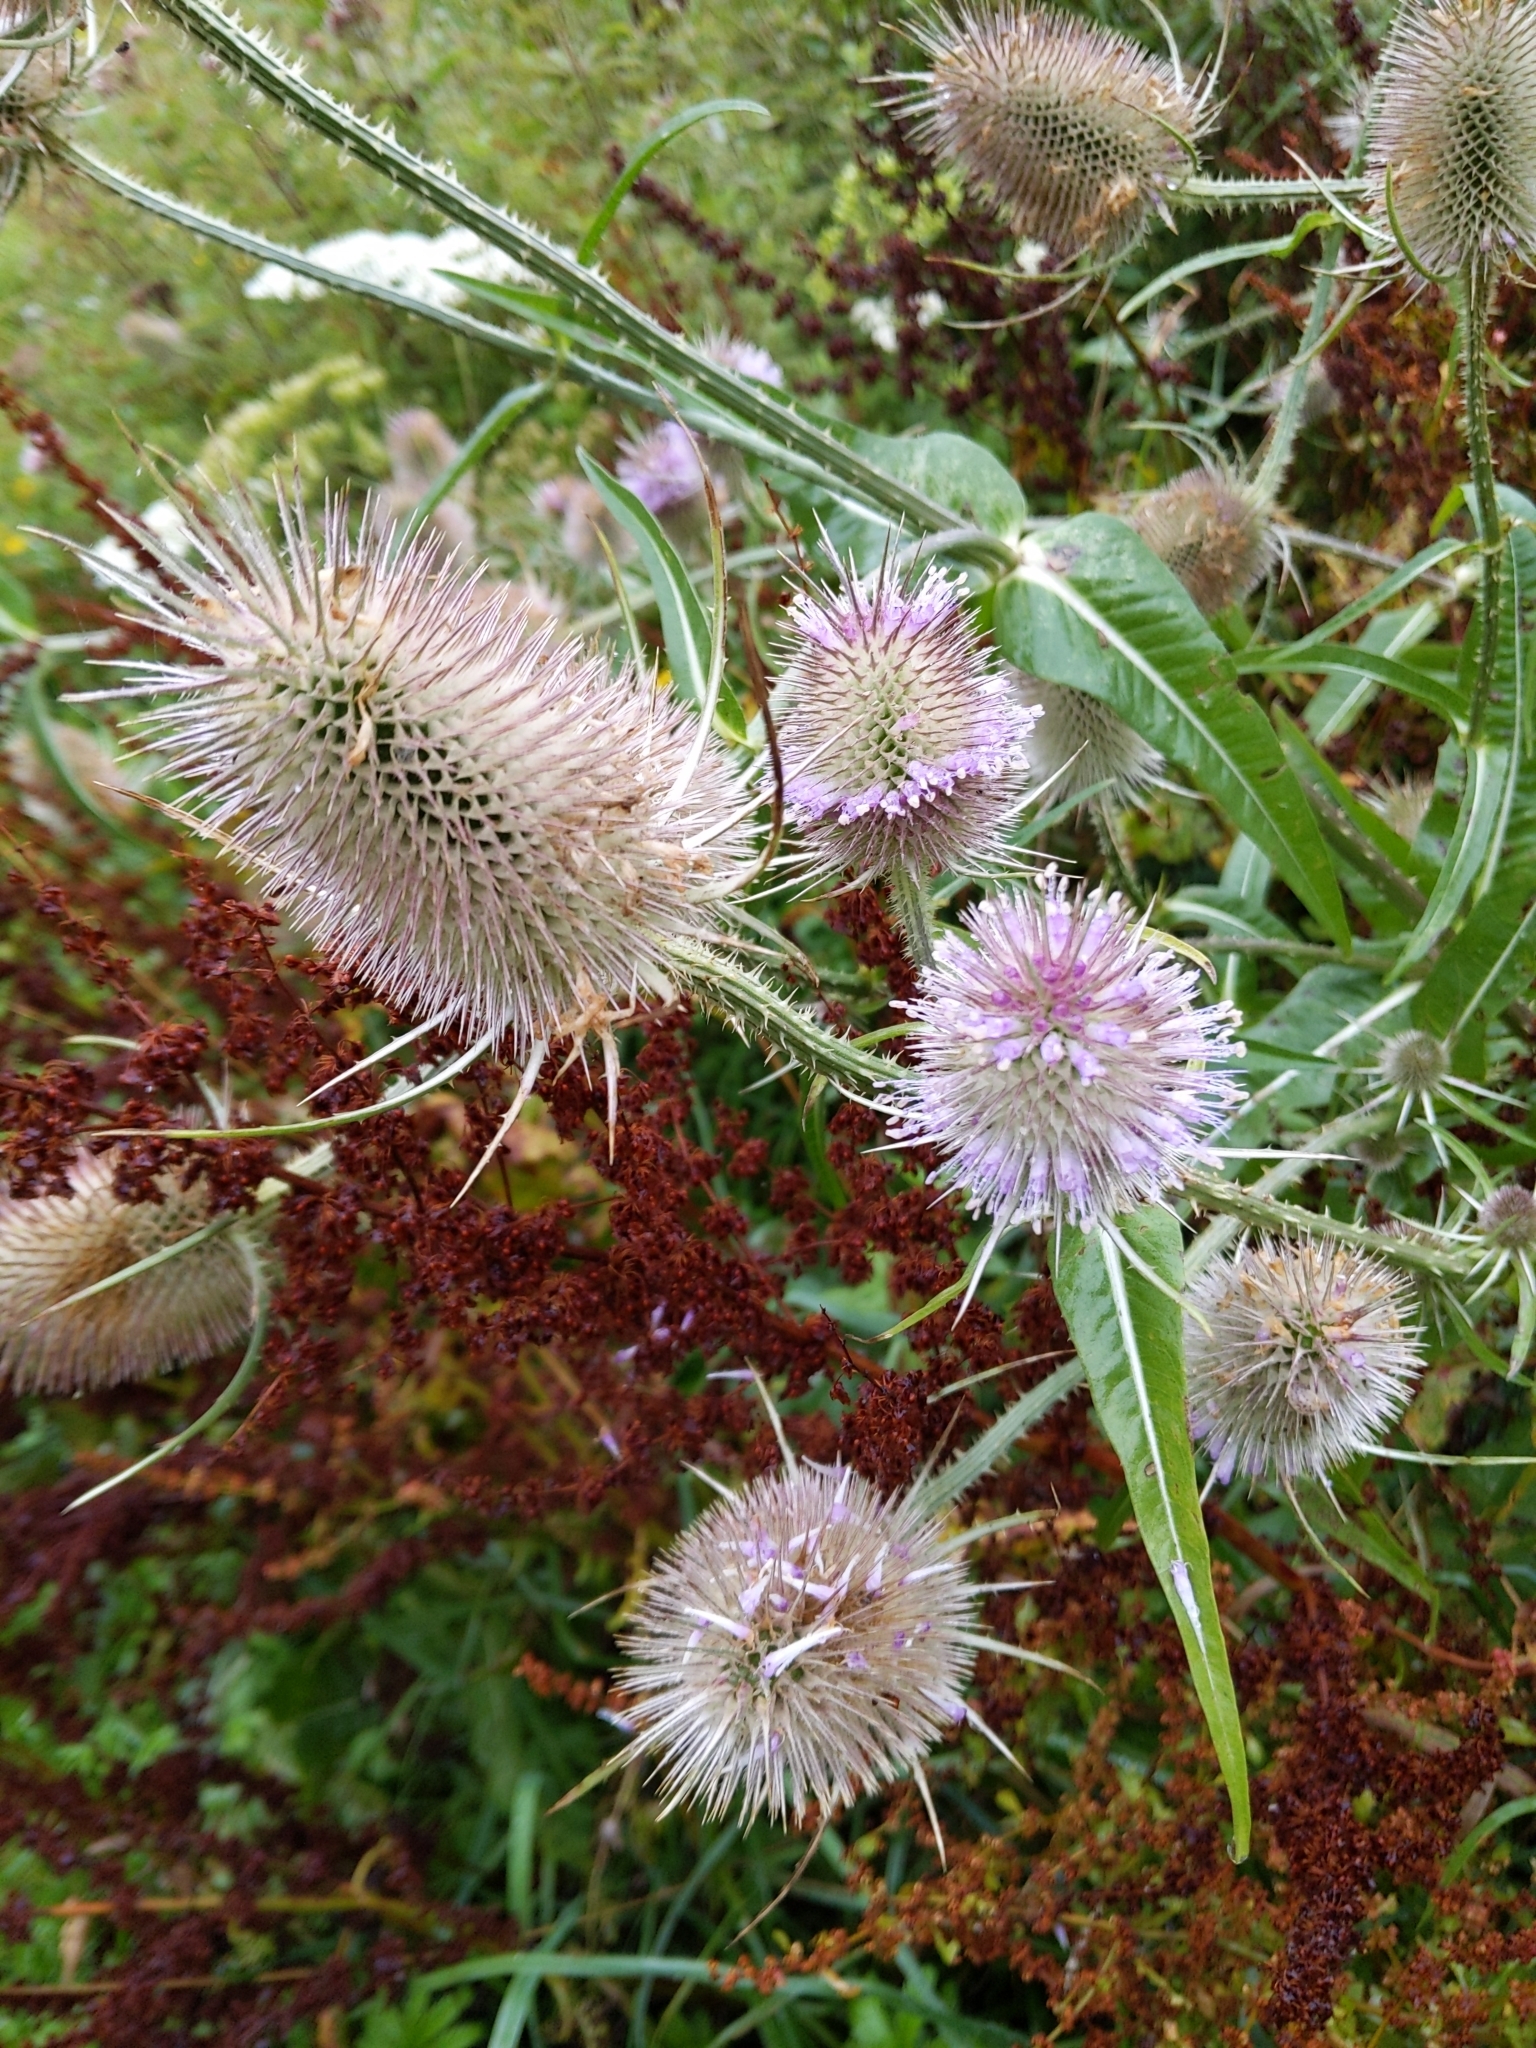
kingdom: Plantae
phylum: Tracheophyta
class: Magnoliopsida
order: Dipsacales
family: Caprifoliaceae
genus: Dipsacus
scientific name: Dipsacus fullonum
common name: Teasel
